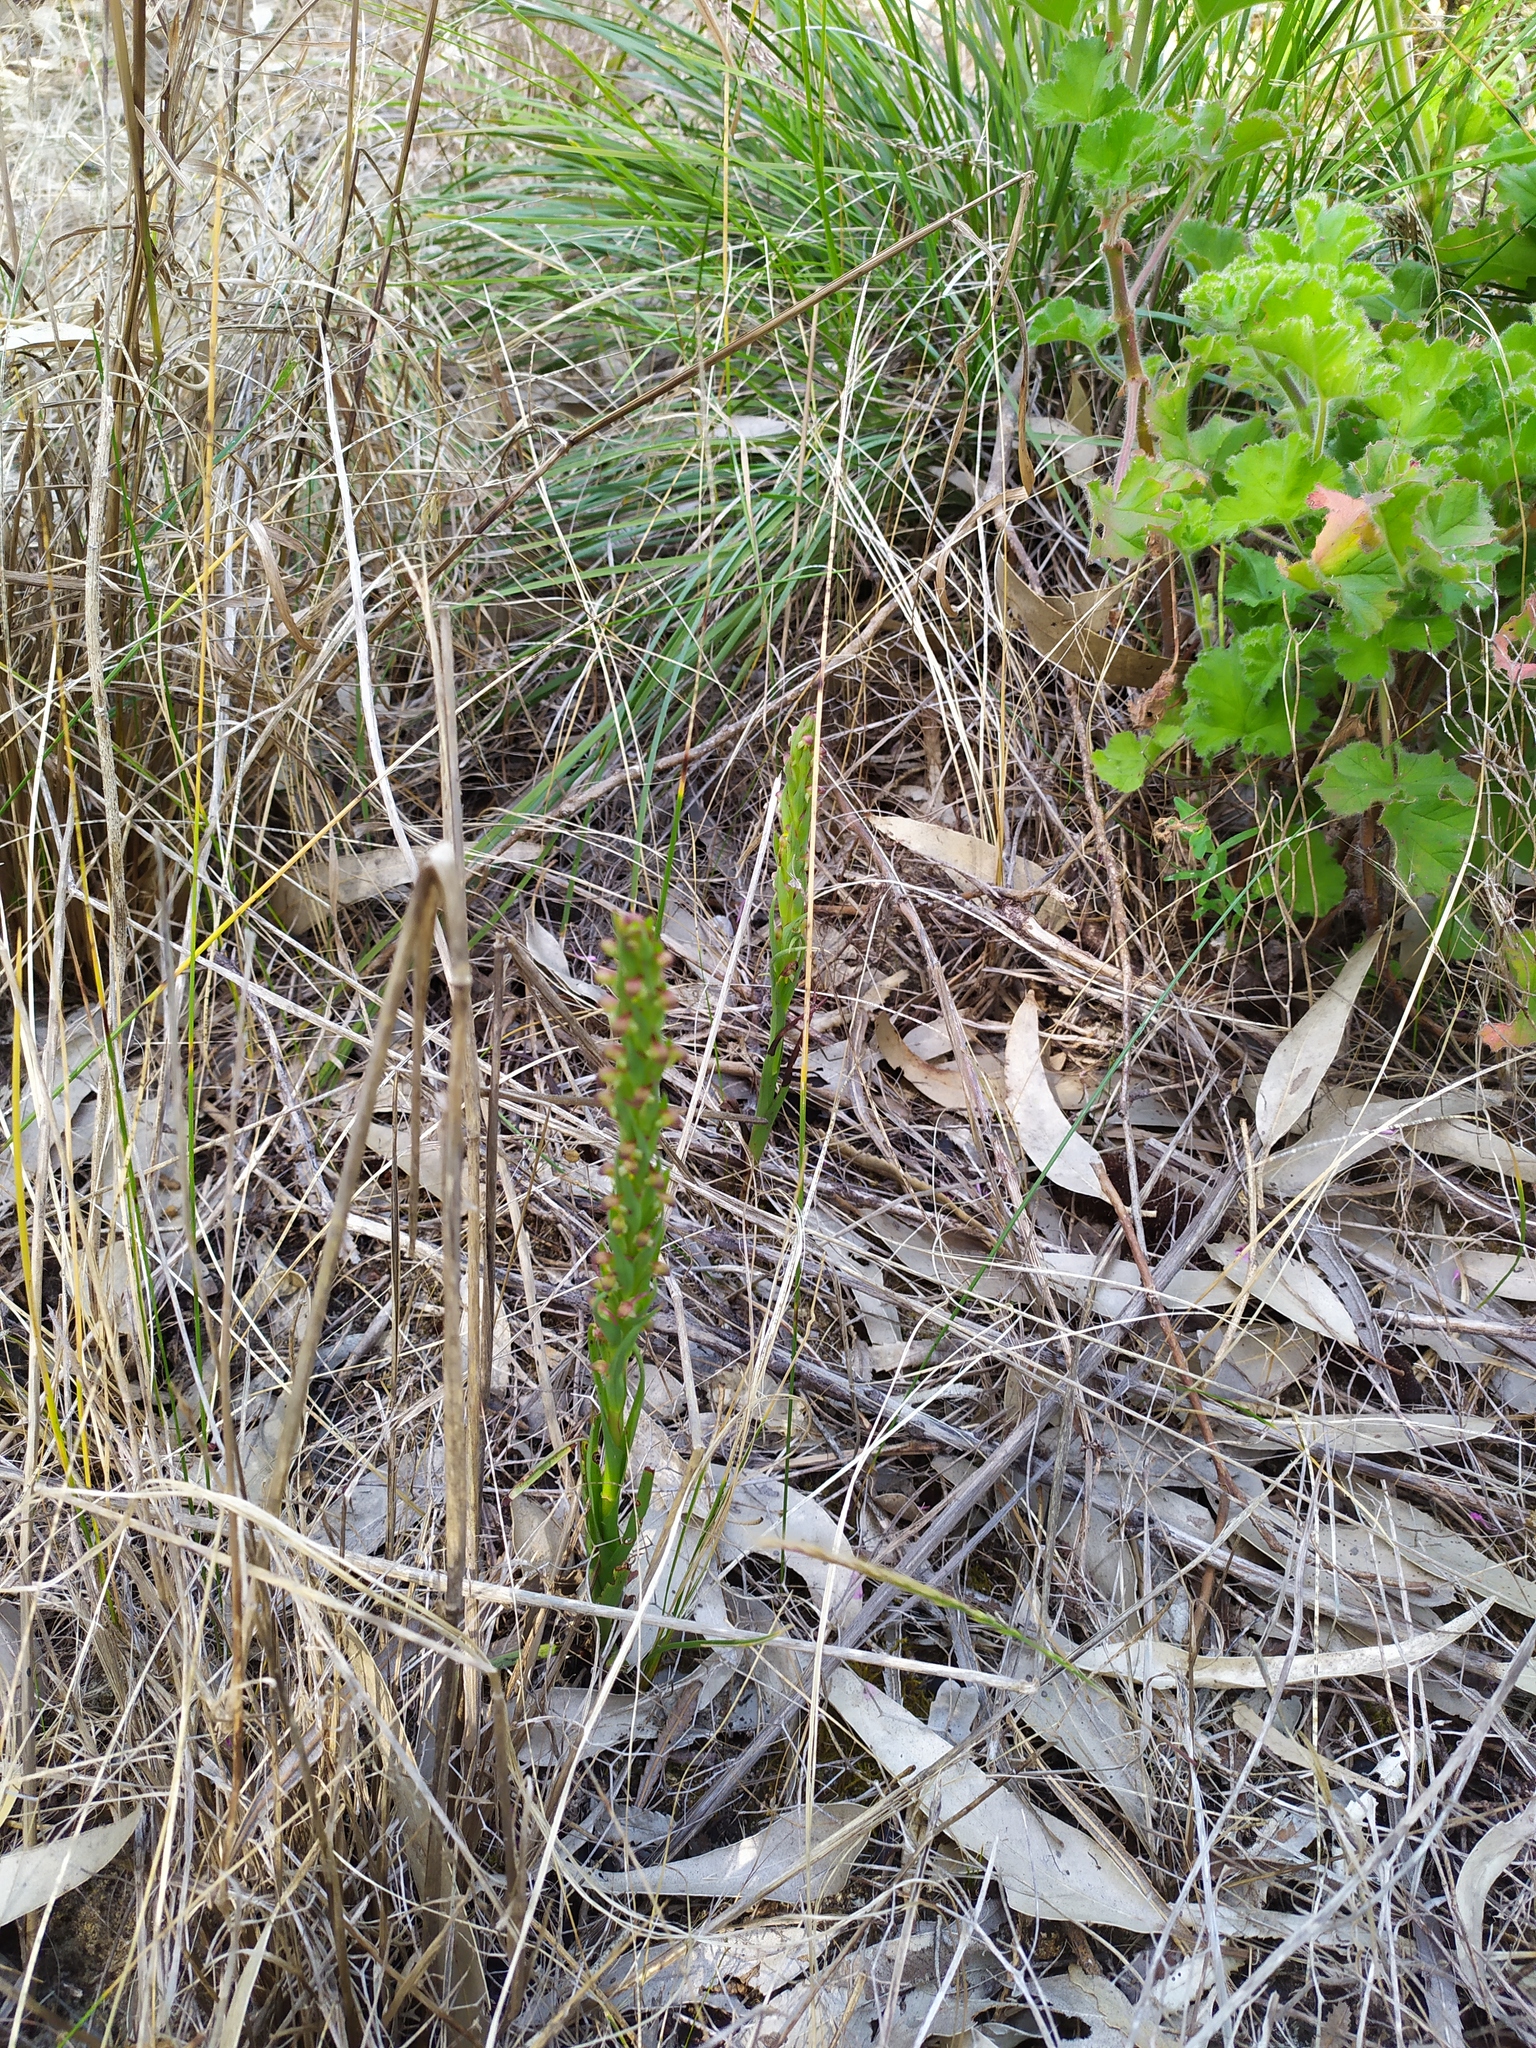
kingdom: Plantae
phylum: Tracheophyta
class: Liliopsida
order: Asparagales
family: Orchidaceae
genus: Disa
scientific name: Disa bracteata
